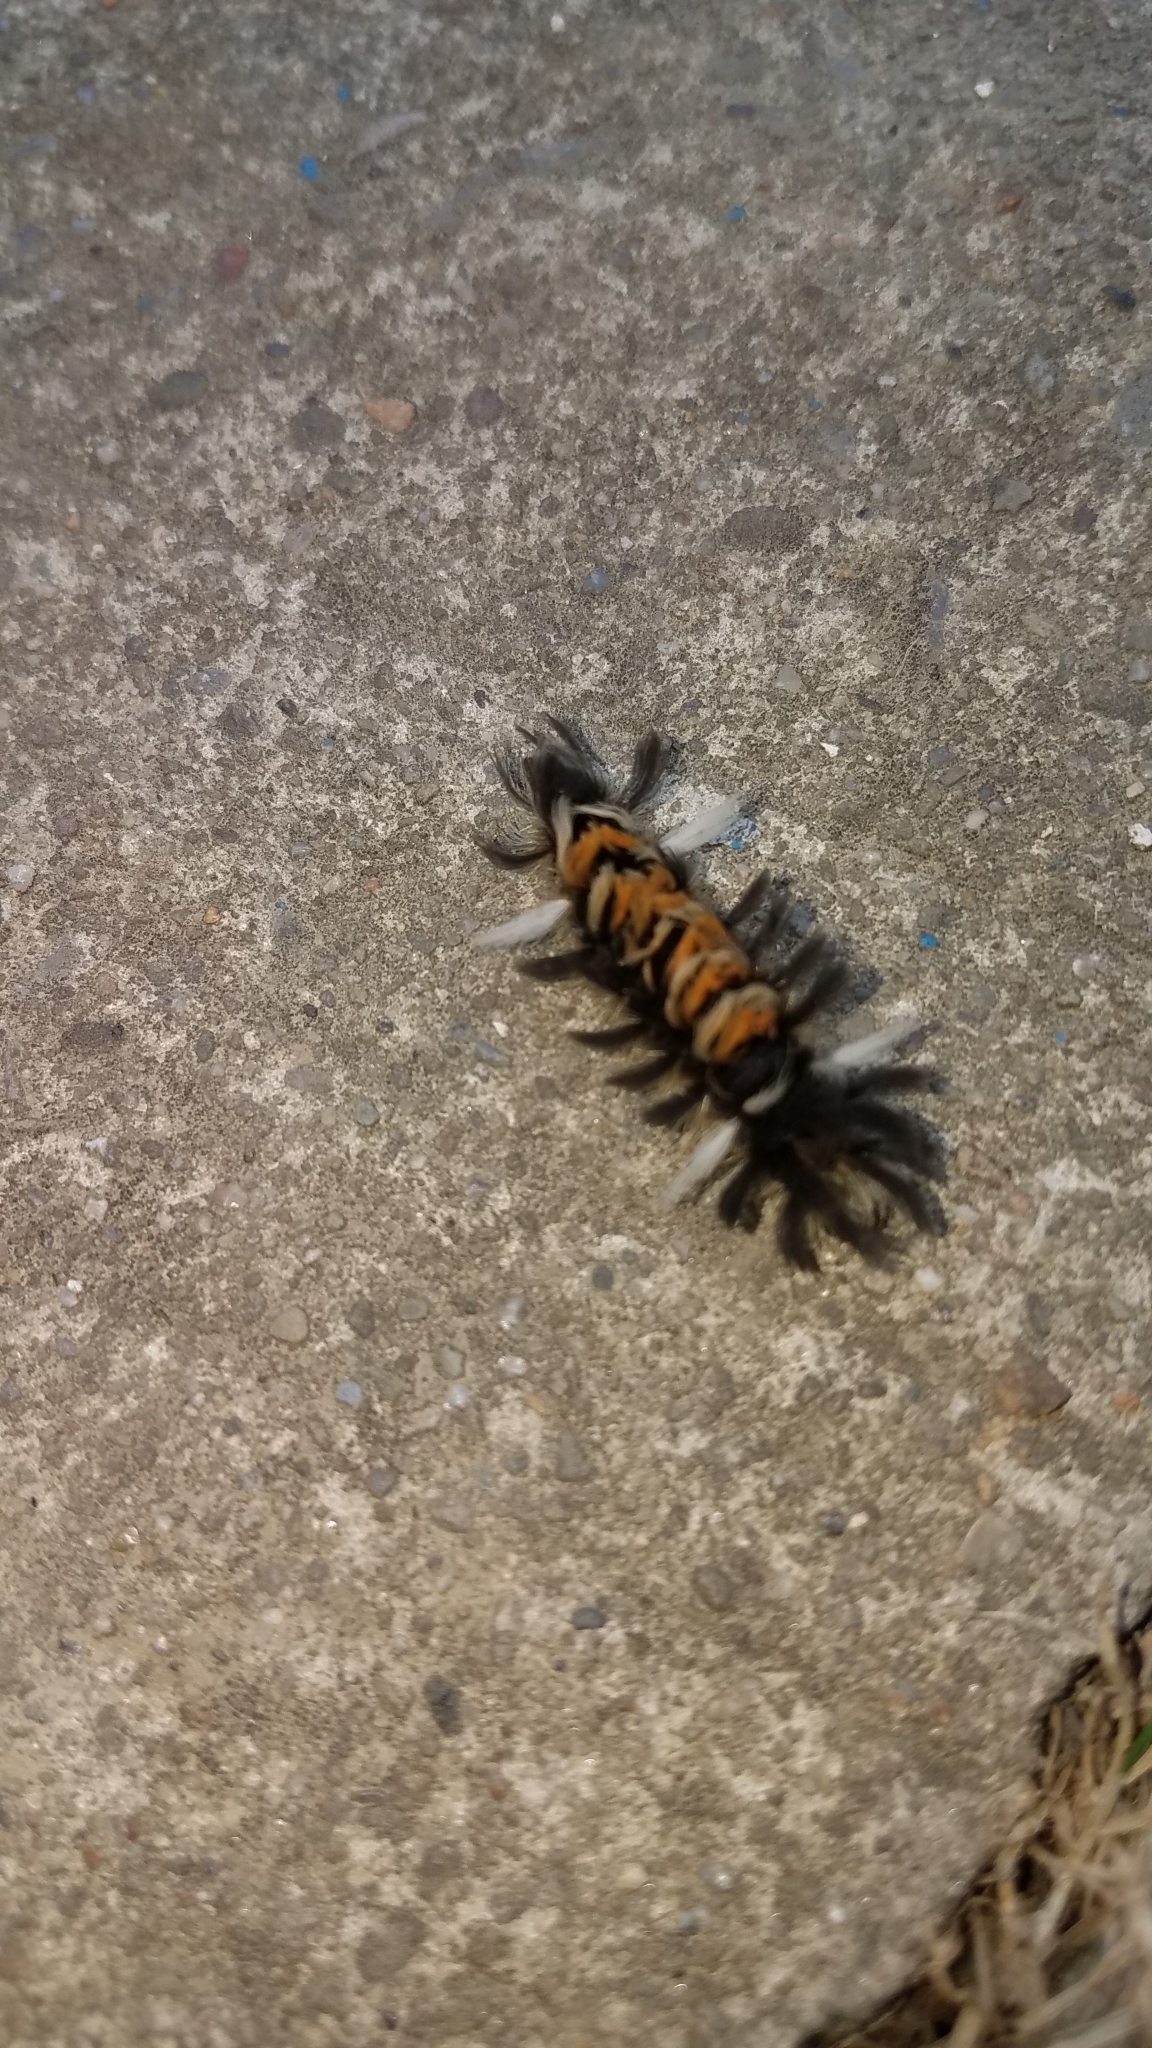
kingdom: Animalia
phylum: Arthropoda
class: Insecta
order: Lepidoptera
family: Erebidae
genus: Euchaetes
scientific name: Euchaetes egle
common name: Milkweed tussock moth
